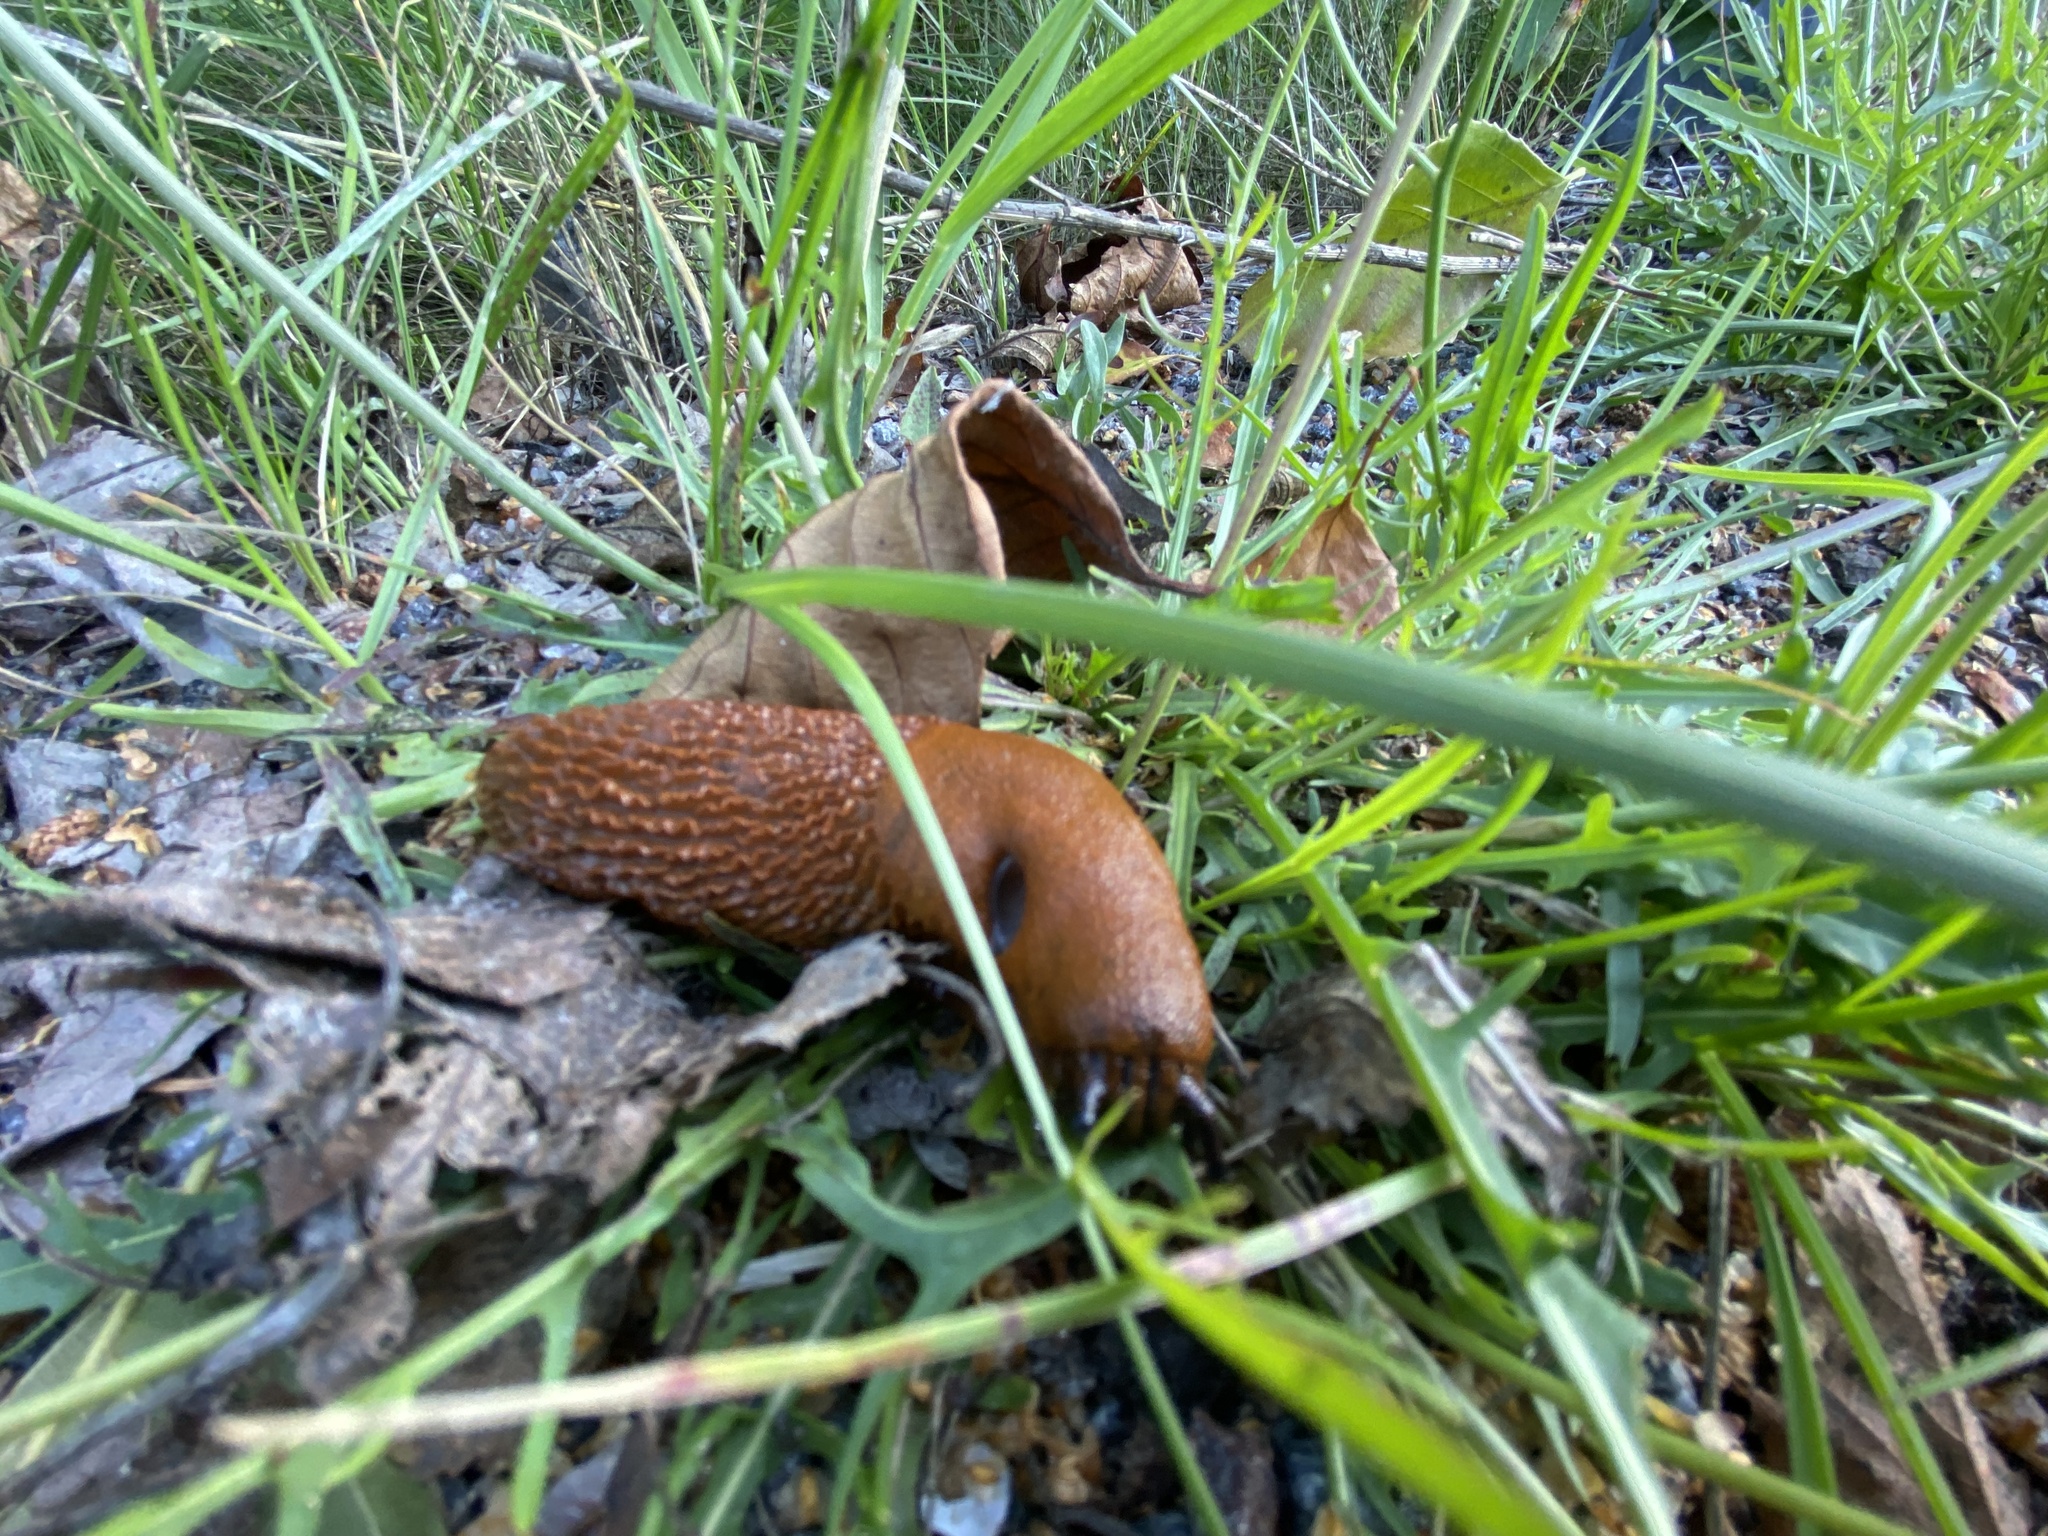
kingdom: Animalia
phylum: Mollusca
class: Gastropoda
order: Stylommatophora
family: Arionidae
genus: Arion
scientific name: Arion vulgaris
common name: Lusitanian slug
